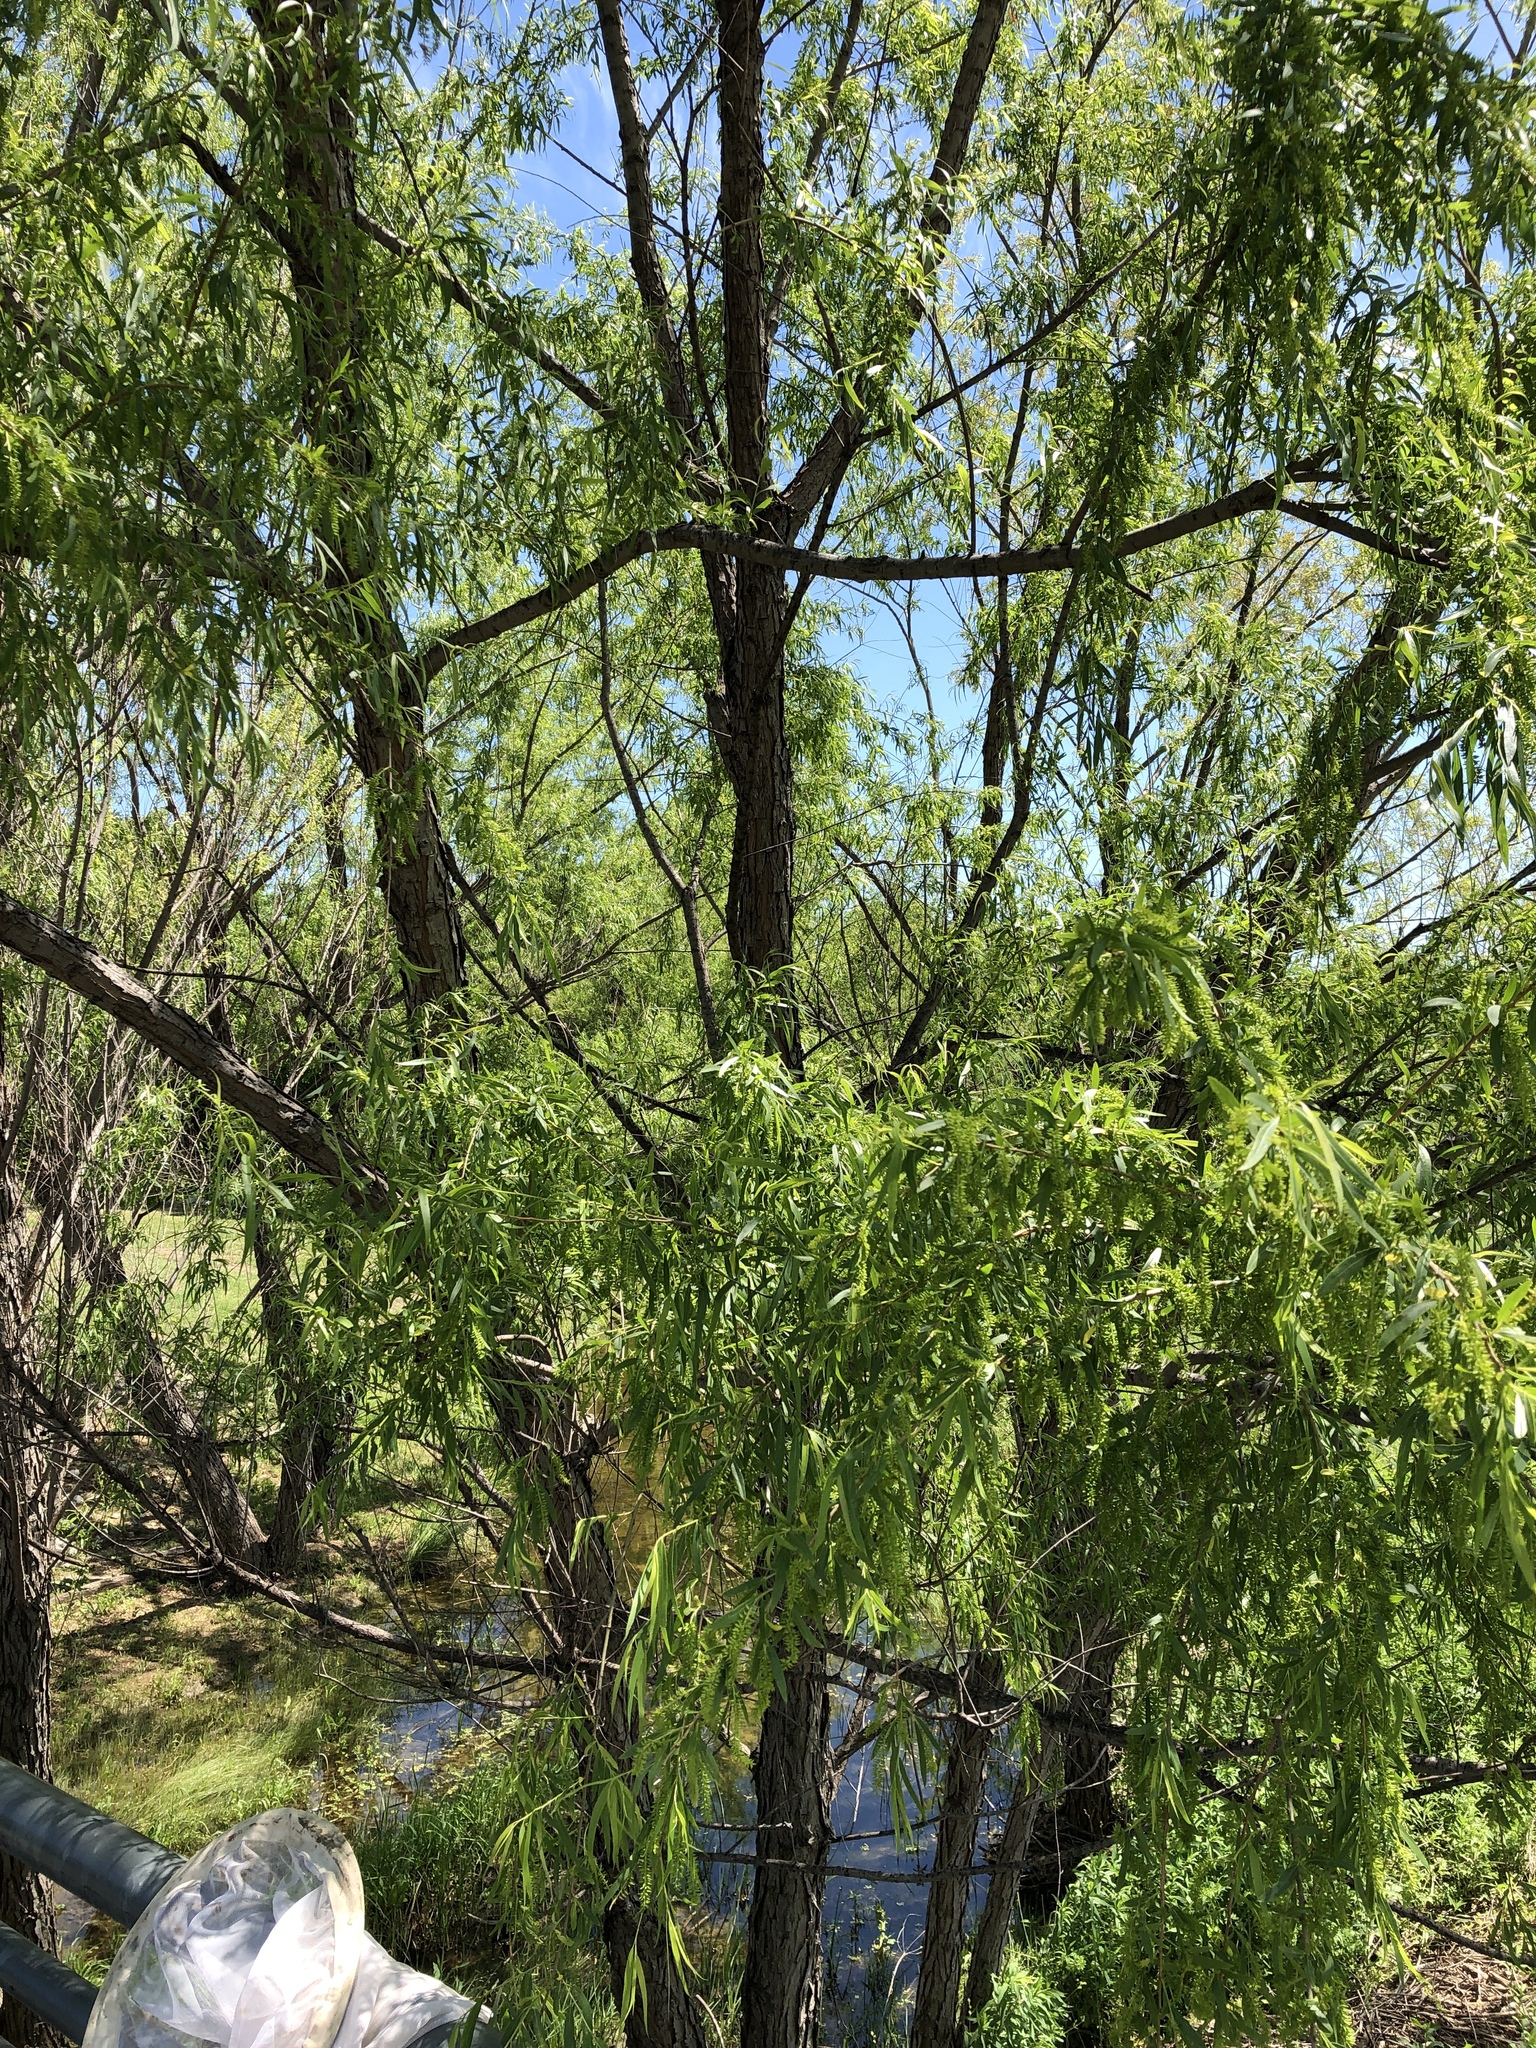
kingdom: Plantae
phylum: Tracheophyta
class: Magnoliopsida
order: Malpighiales
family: Salicaceae
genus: Salix
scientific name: Salix nigra
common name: Black willow
